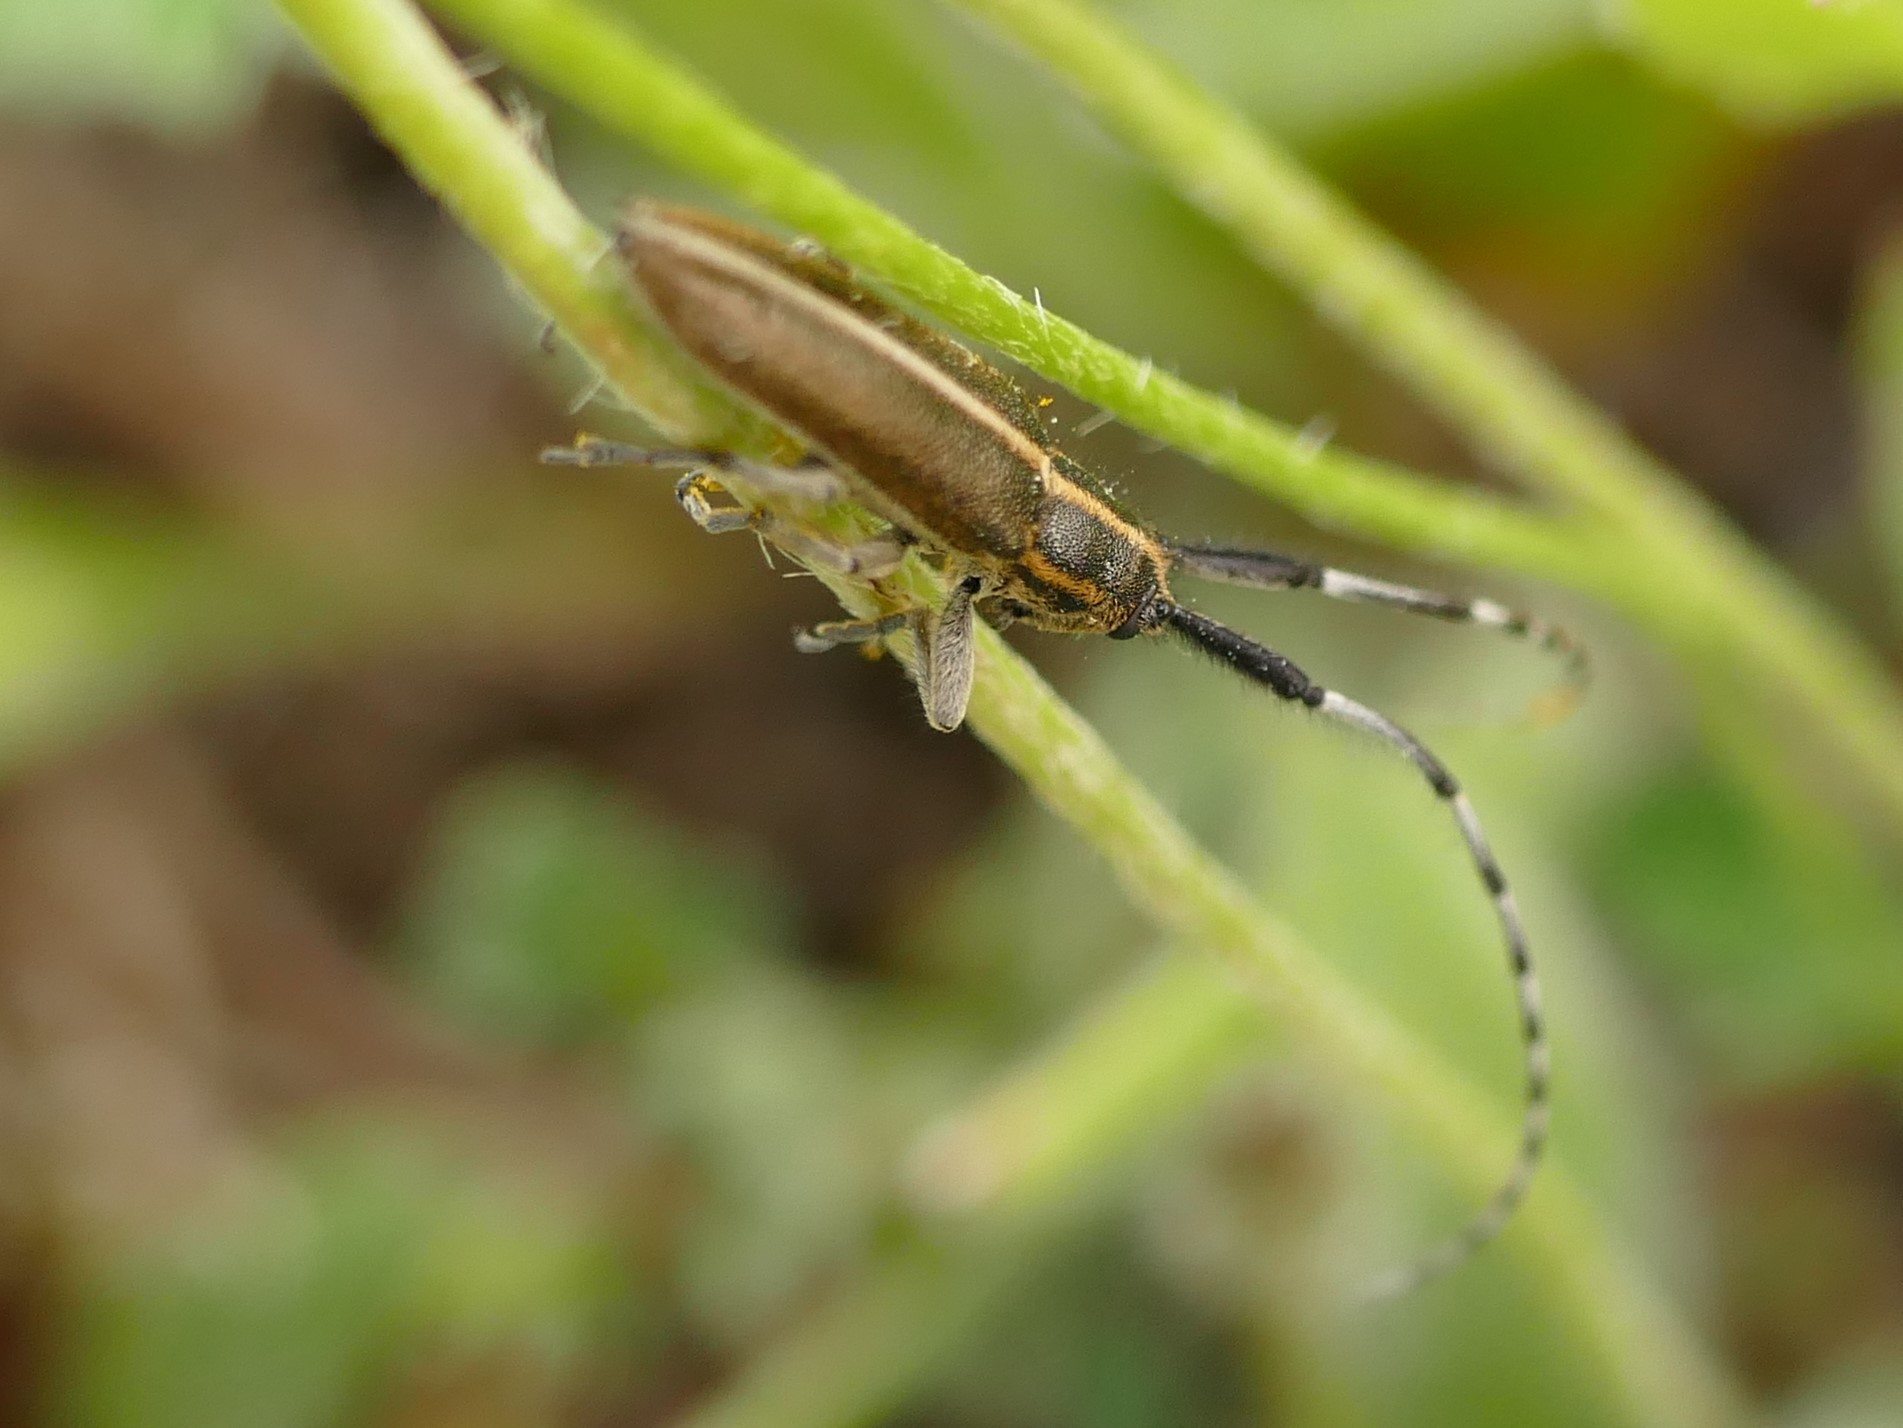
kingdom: Animalia
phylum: Arthropoda
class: Insecta
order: Coleoptera
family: Cerambycidae
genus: Agapanthia
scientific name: Agapanthia cardui
